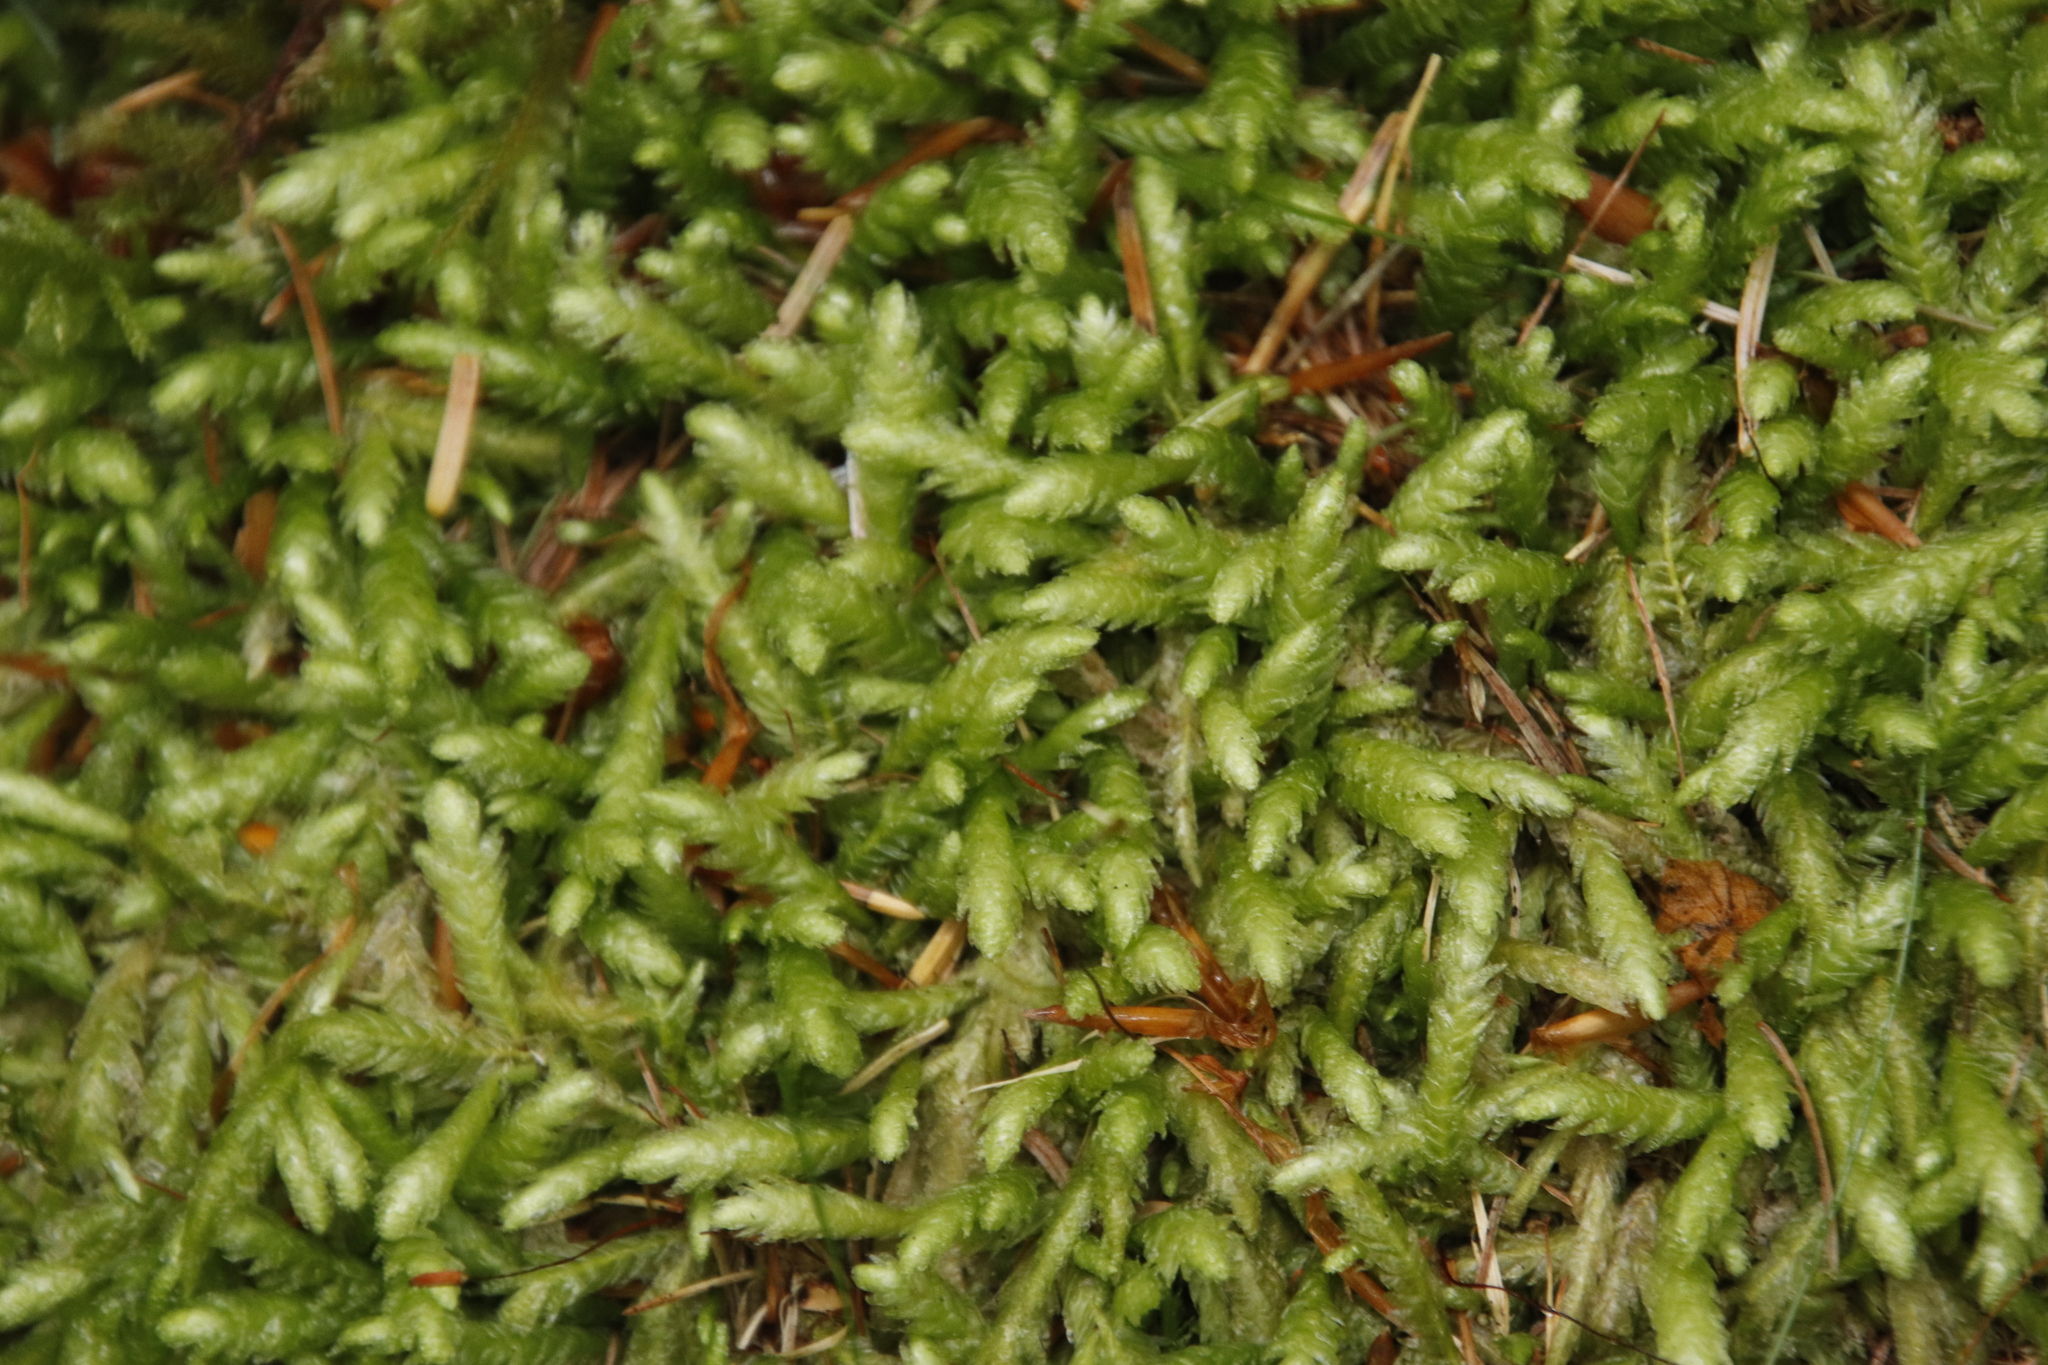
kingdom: Plantae
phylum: Bryophyta
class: Bryopsida
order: Hypnales
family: Plagiotheciaceae
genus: Plagiothecium
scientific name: Plagiothecium undulatum
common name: Waved silk-moss
